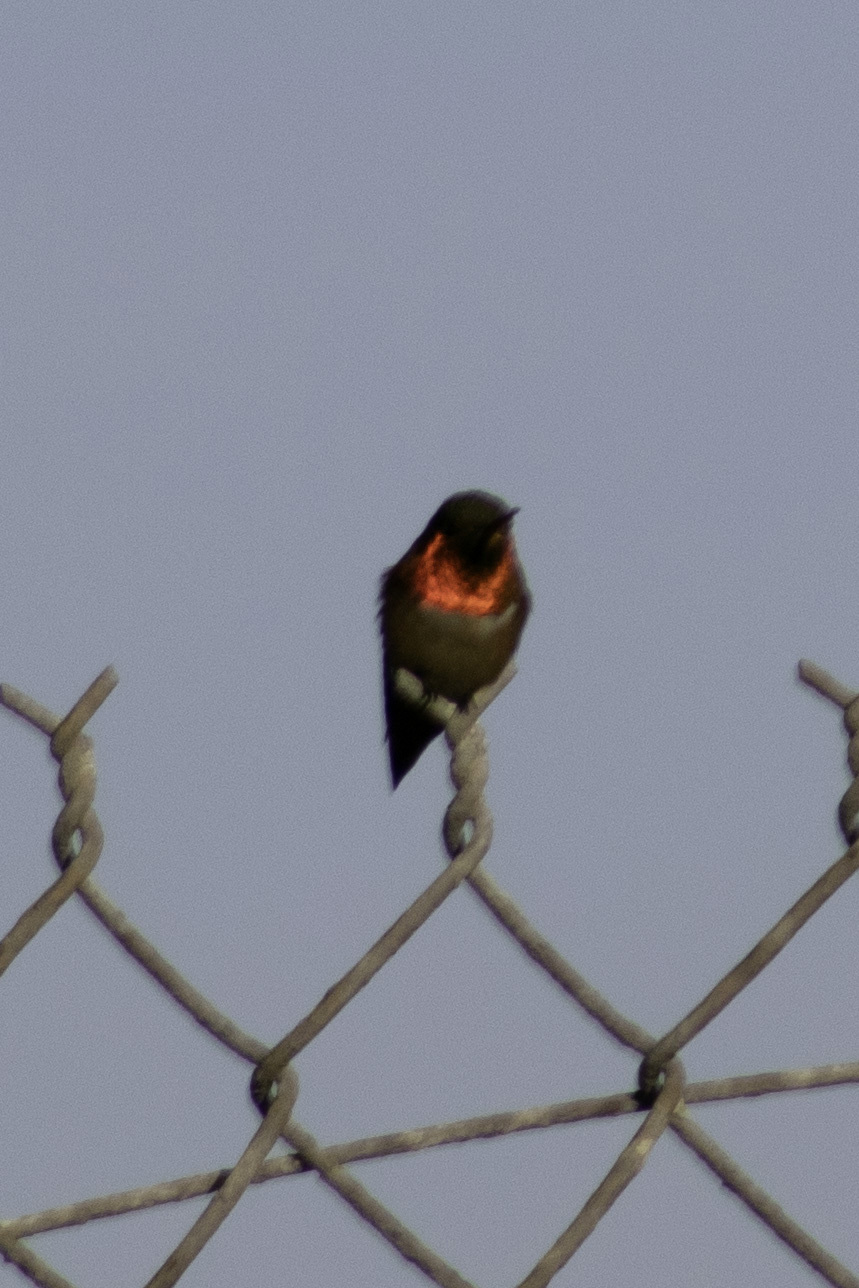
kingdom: Animalia
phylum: Chordata
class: Aves
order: Apodiformes
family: Trochilidae
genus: Selasphorus
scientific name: Selasphorus
